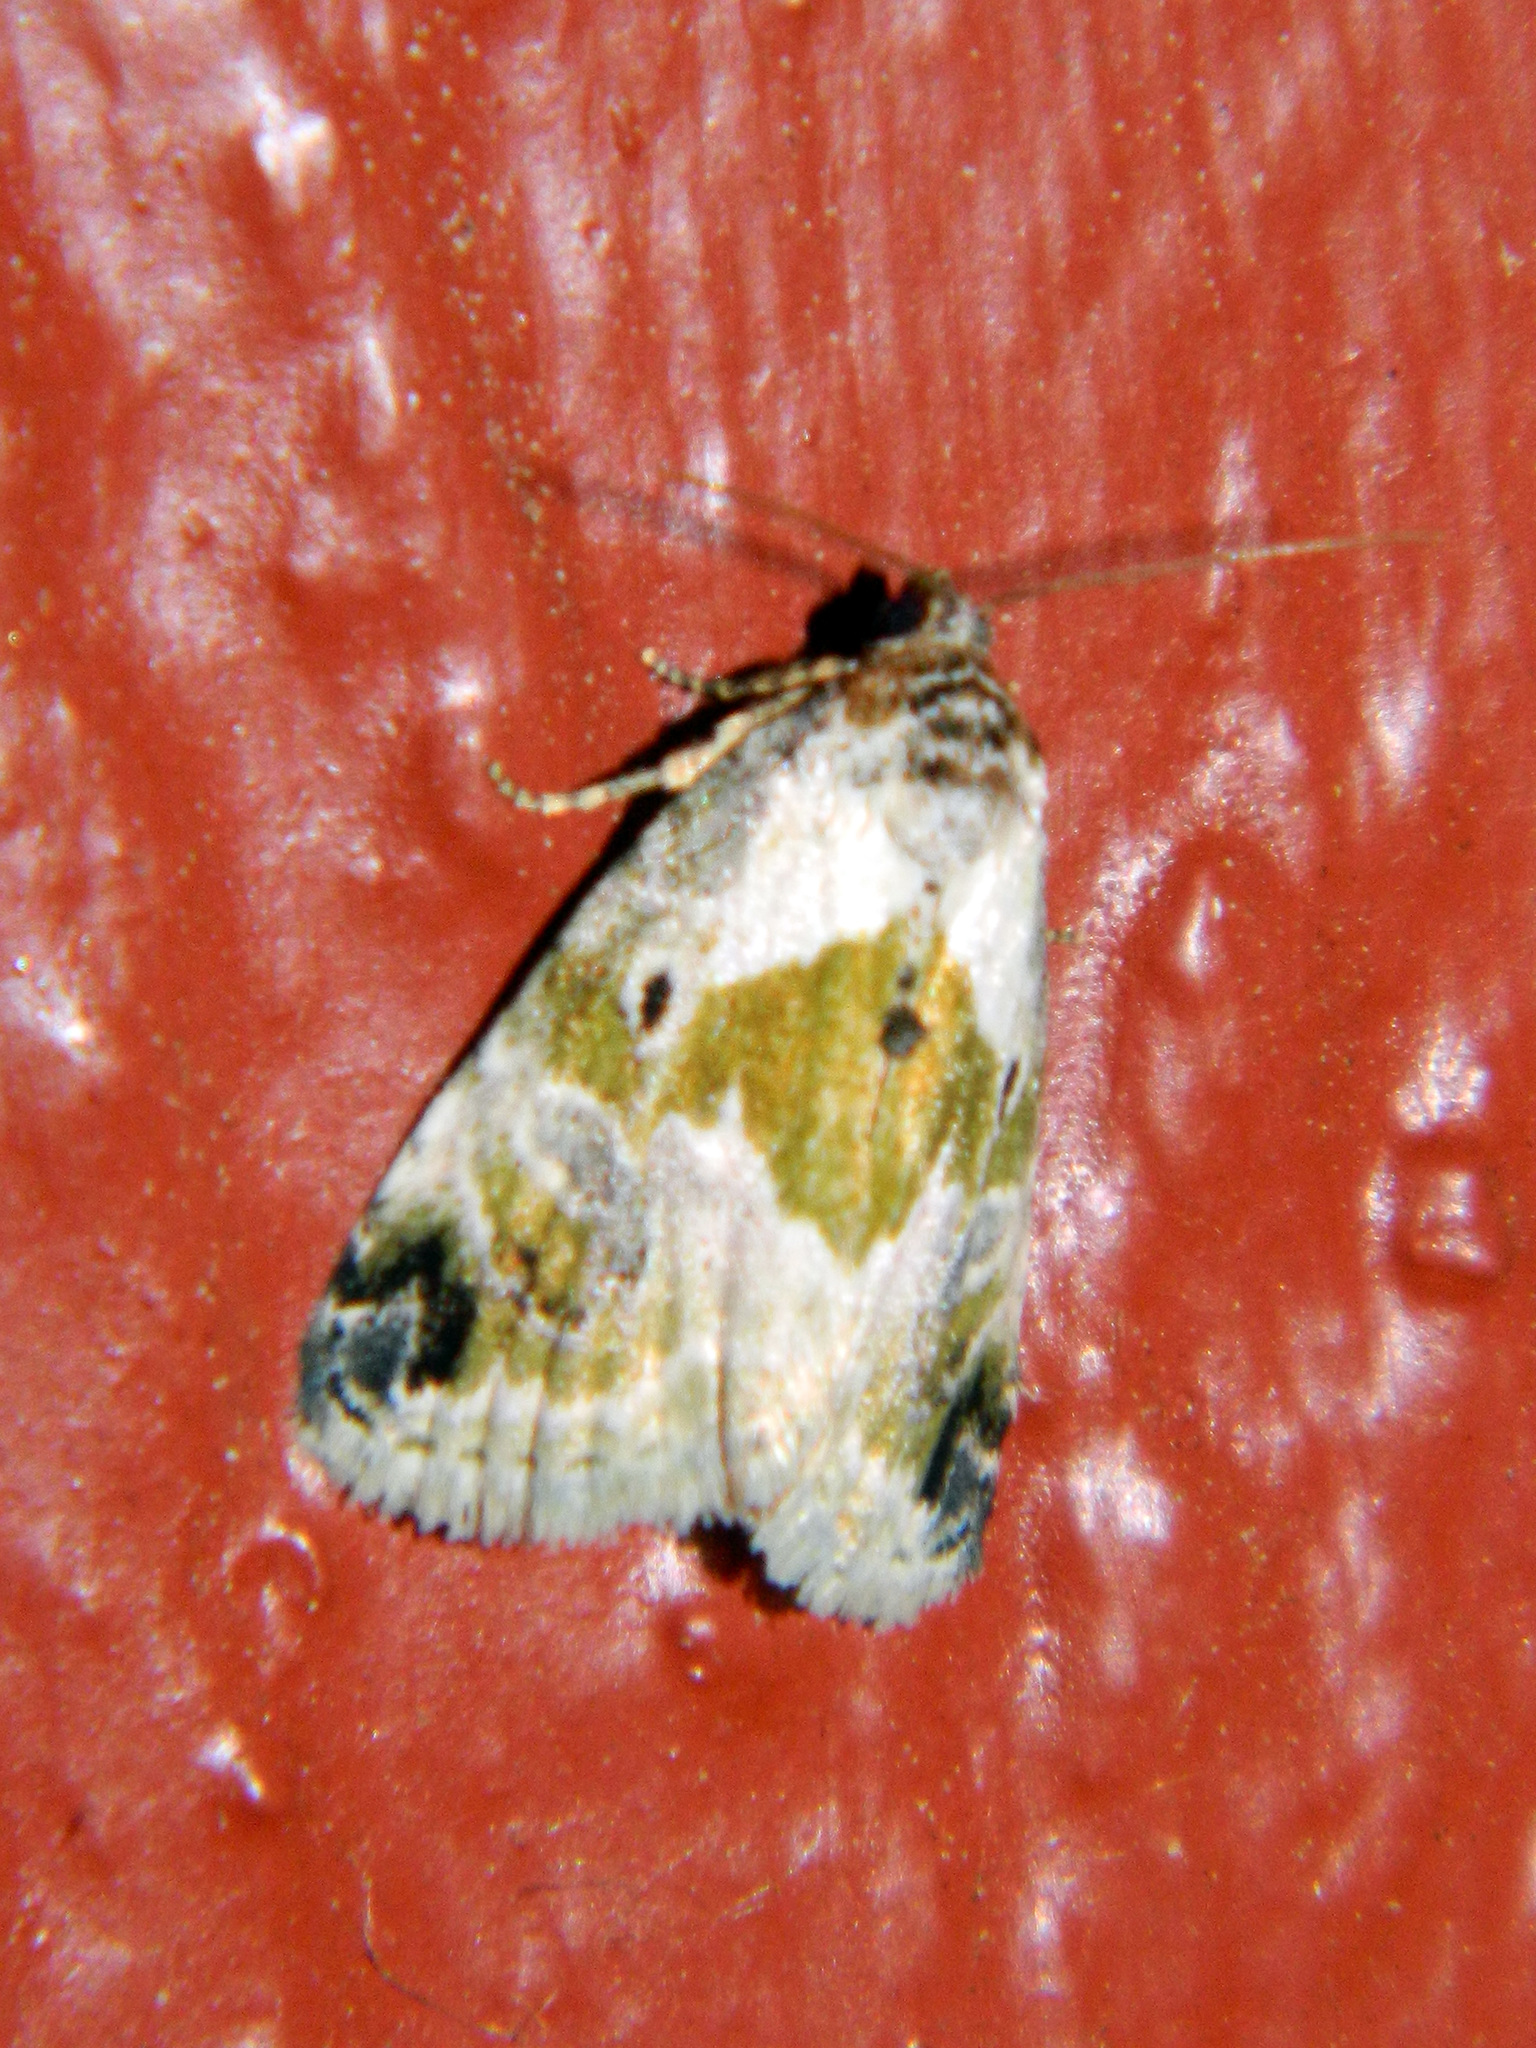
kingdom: Animalia
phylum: Arthropoda
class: Insecta
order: Lepidoptera
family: Noctuidae
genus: Maliattha
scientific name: Maliattha synochitis
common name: Black-dotted glyph
